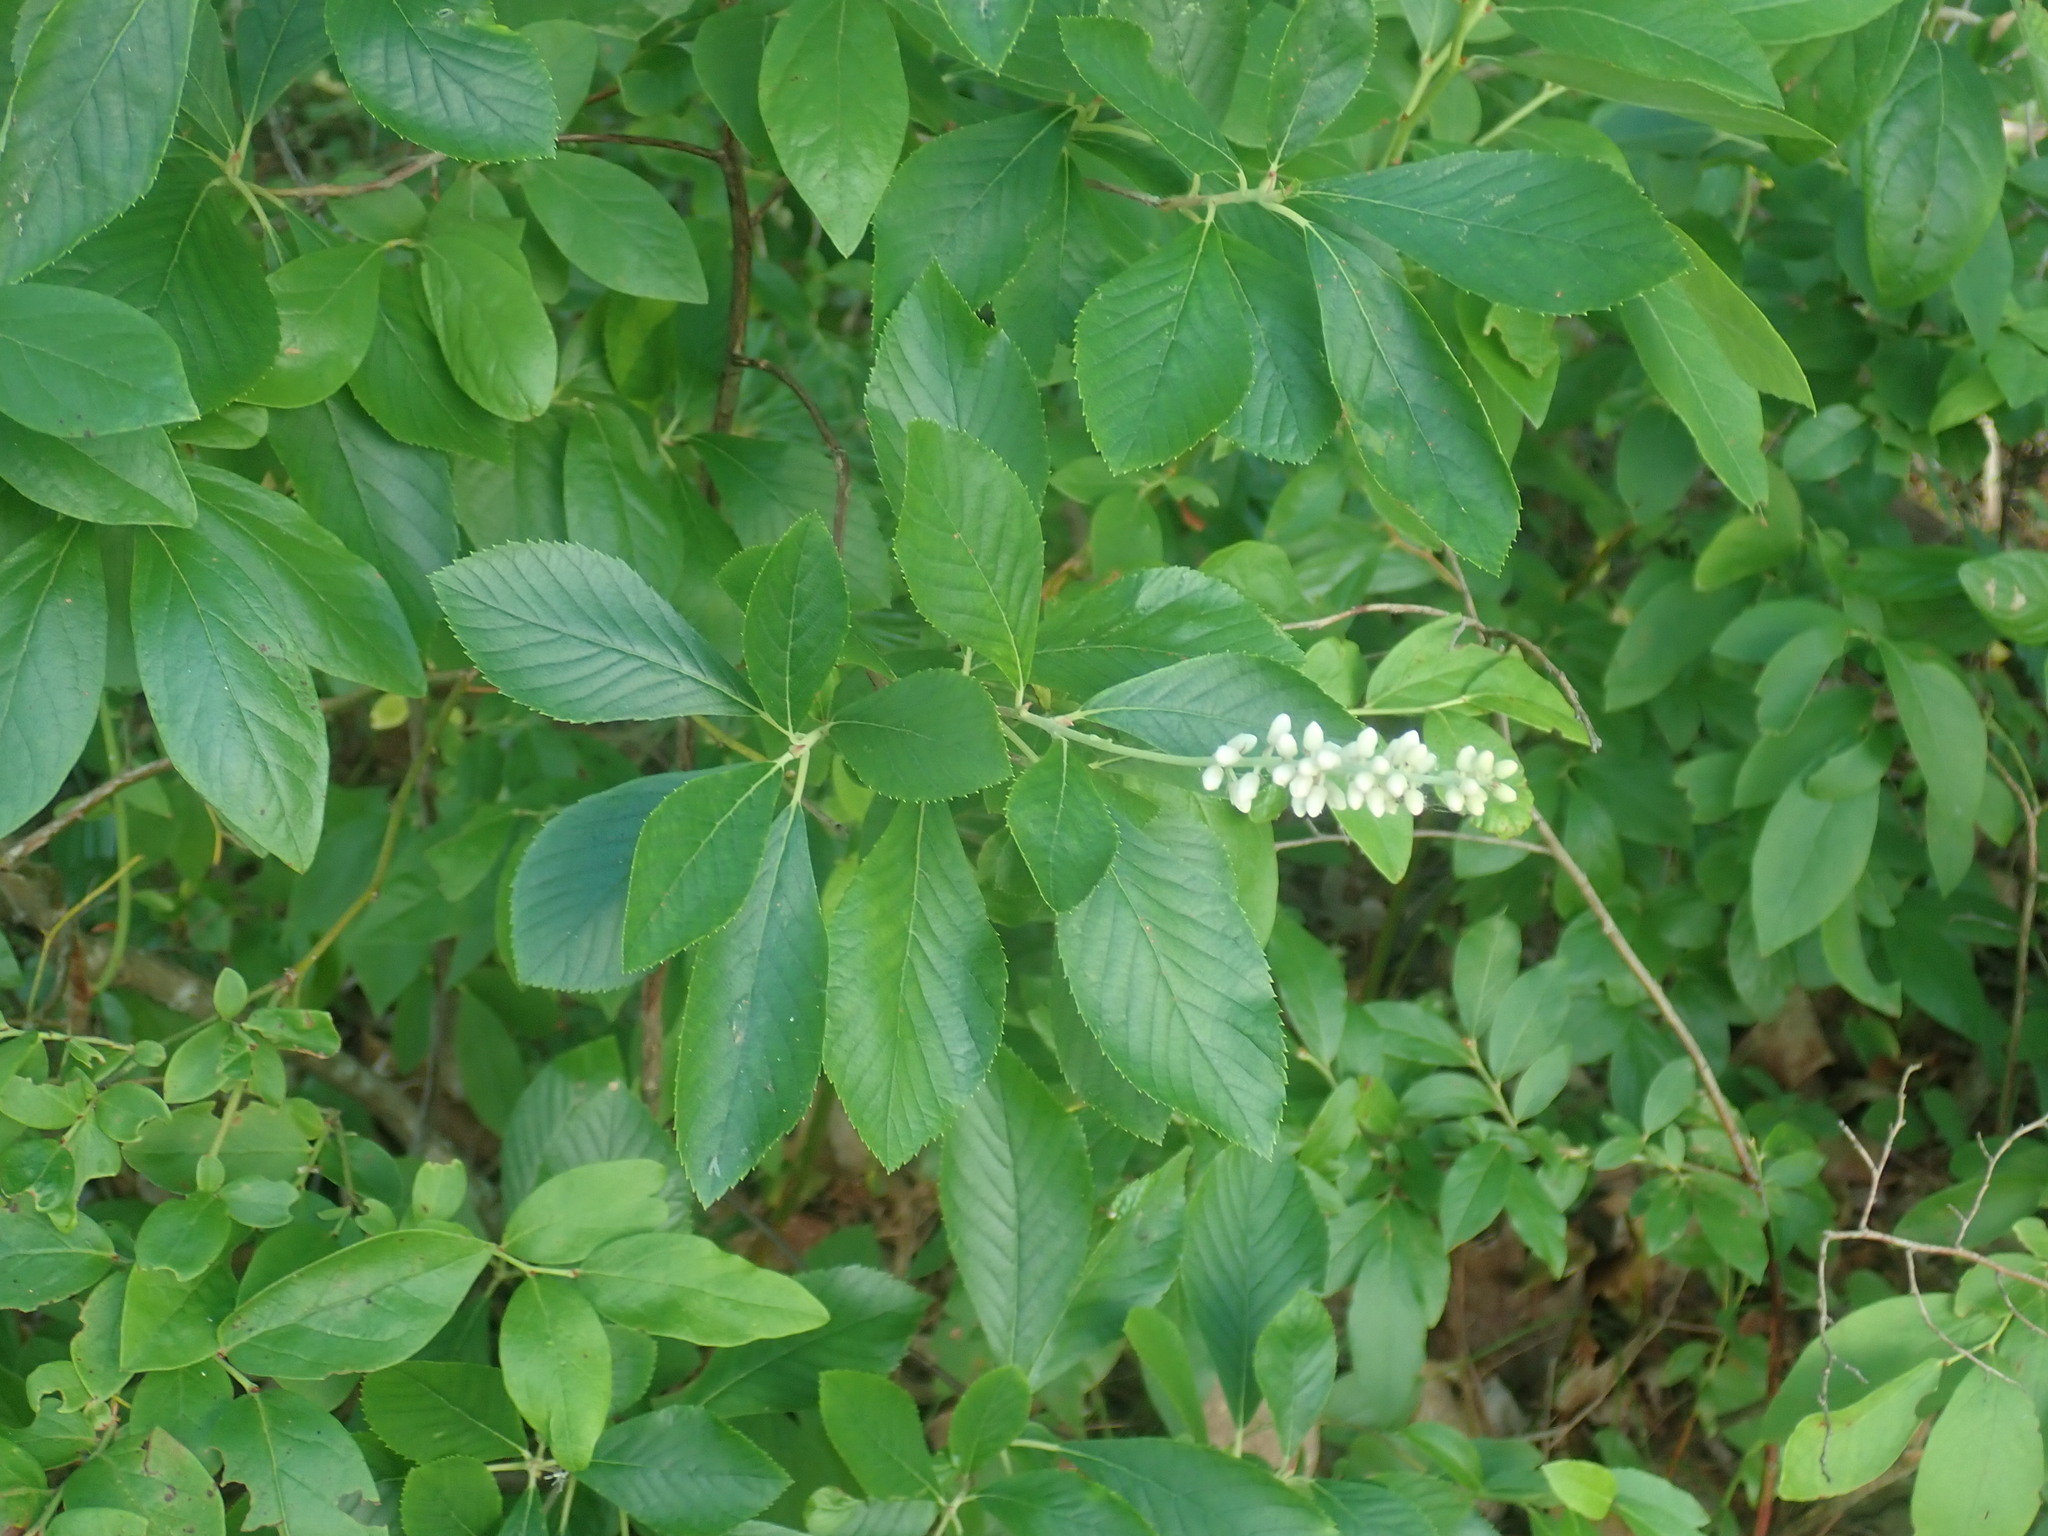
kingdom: Plantae
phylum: Tracheophyta
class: Magnoliopsida
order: Ericales
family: Clethraceae
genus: Clethra
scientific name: Clethra alnifolia
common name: Sweet pepperbush
